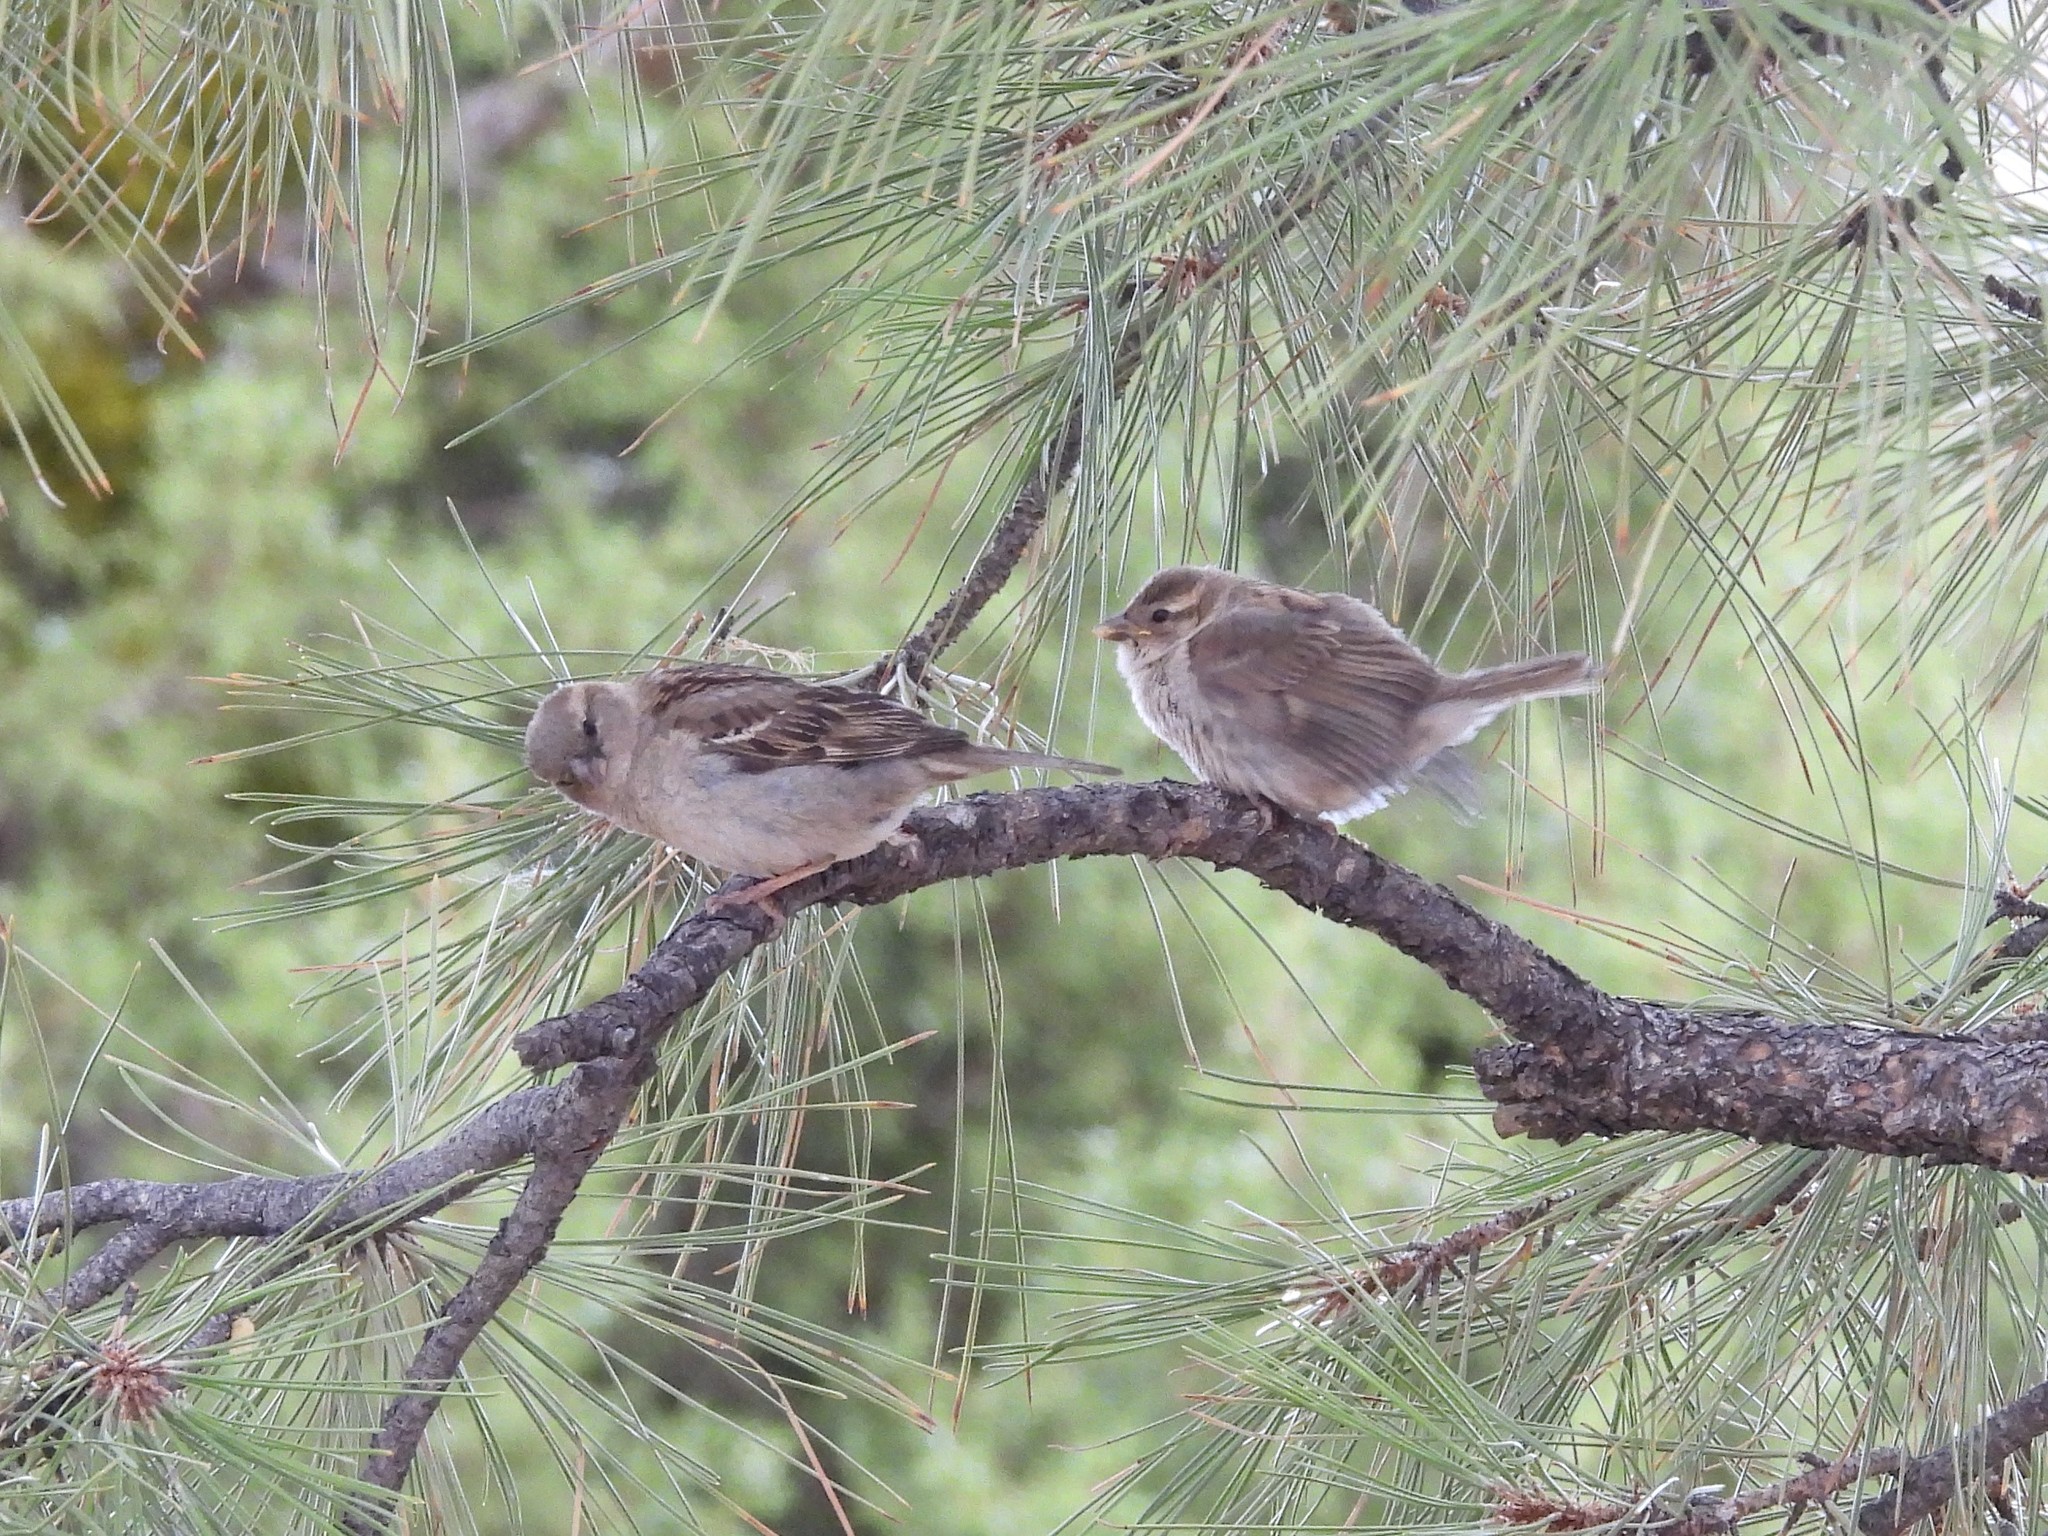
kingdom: Animalia
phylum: Chordata
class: Aves
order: Passeriformes
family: Passeridae
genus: Passer
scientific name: Passer domesticus
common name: House sparrow
